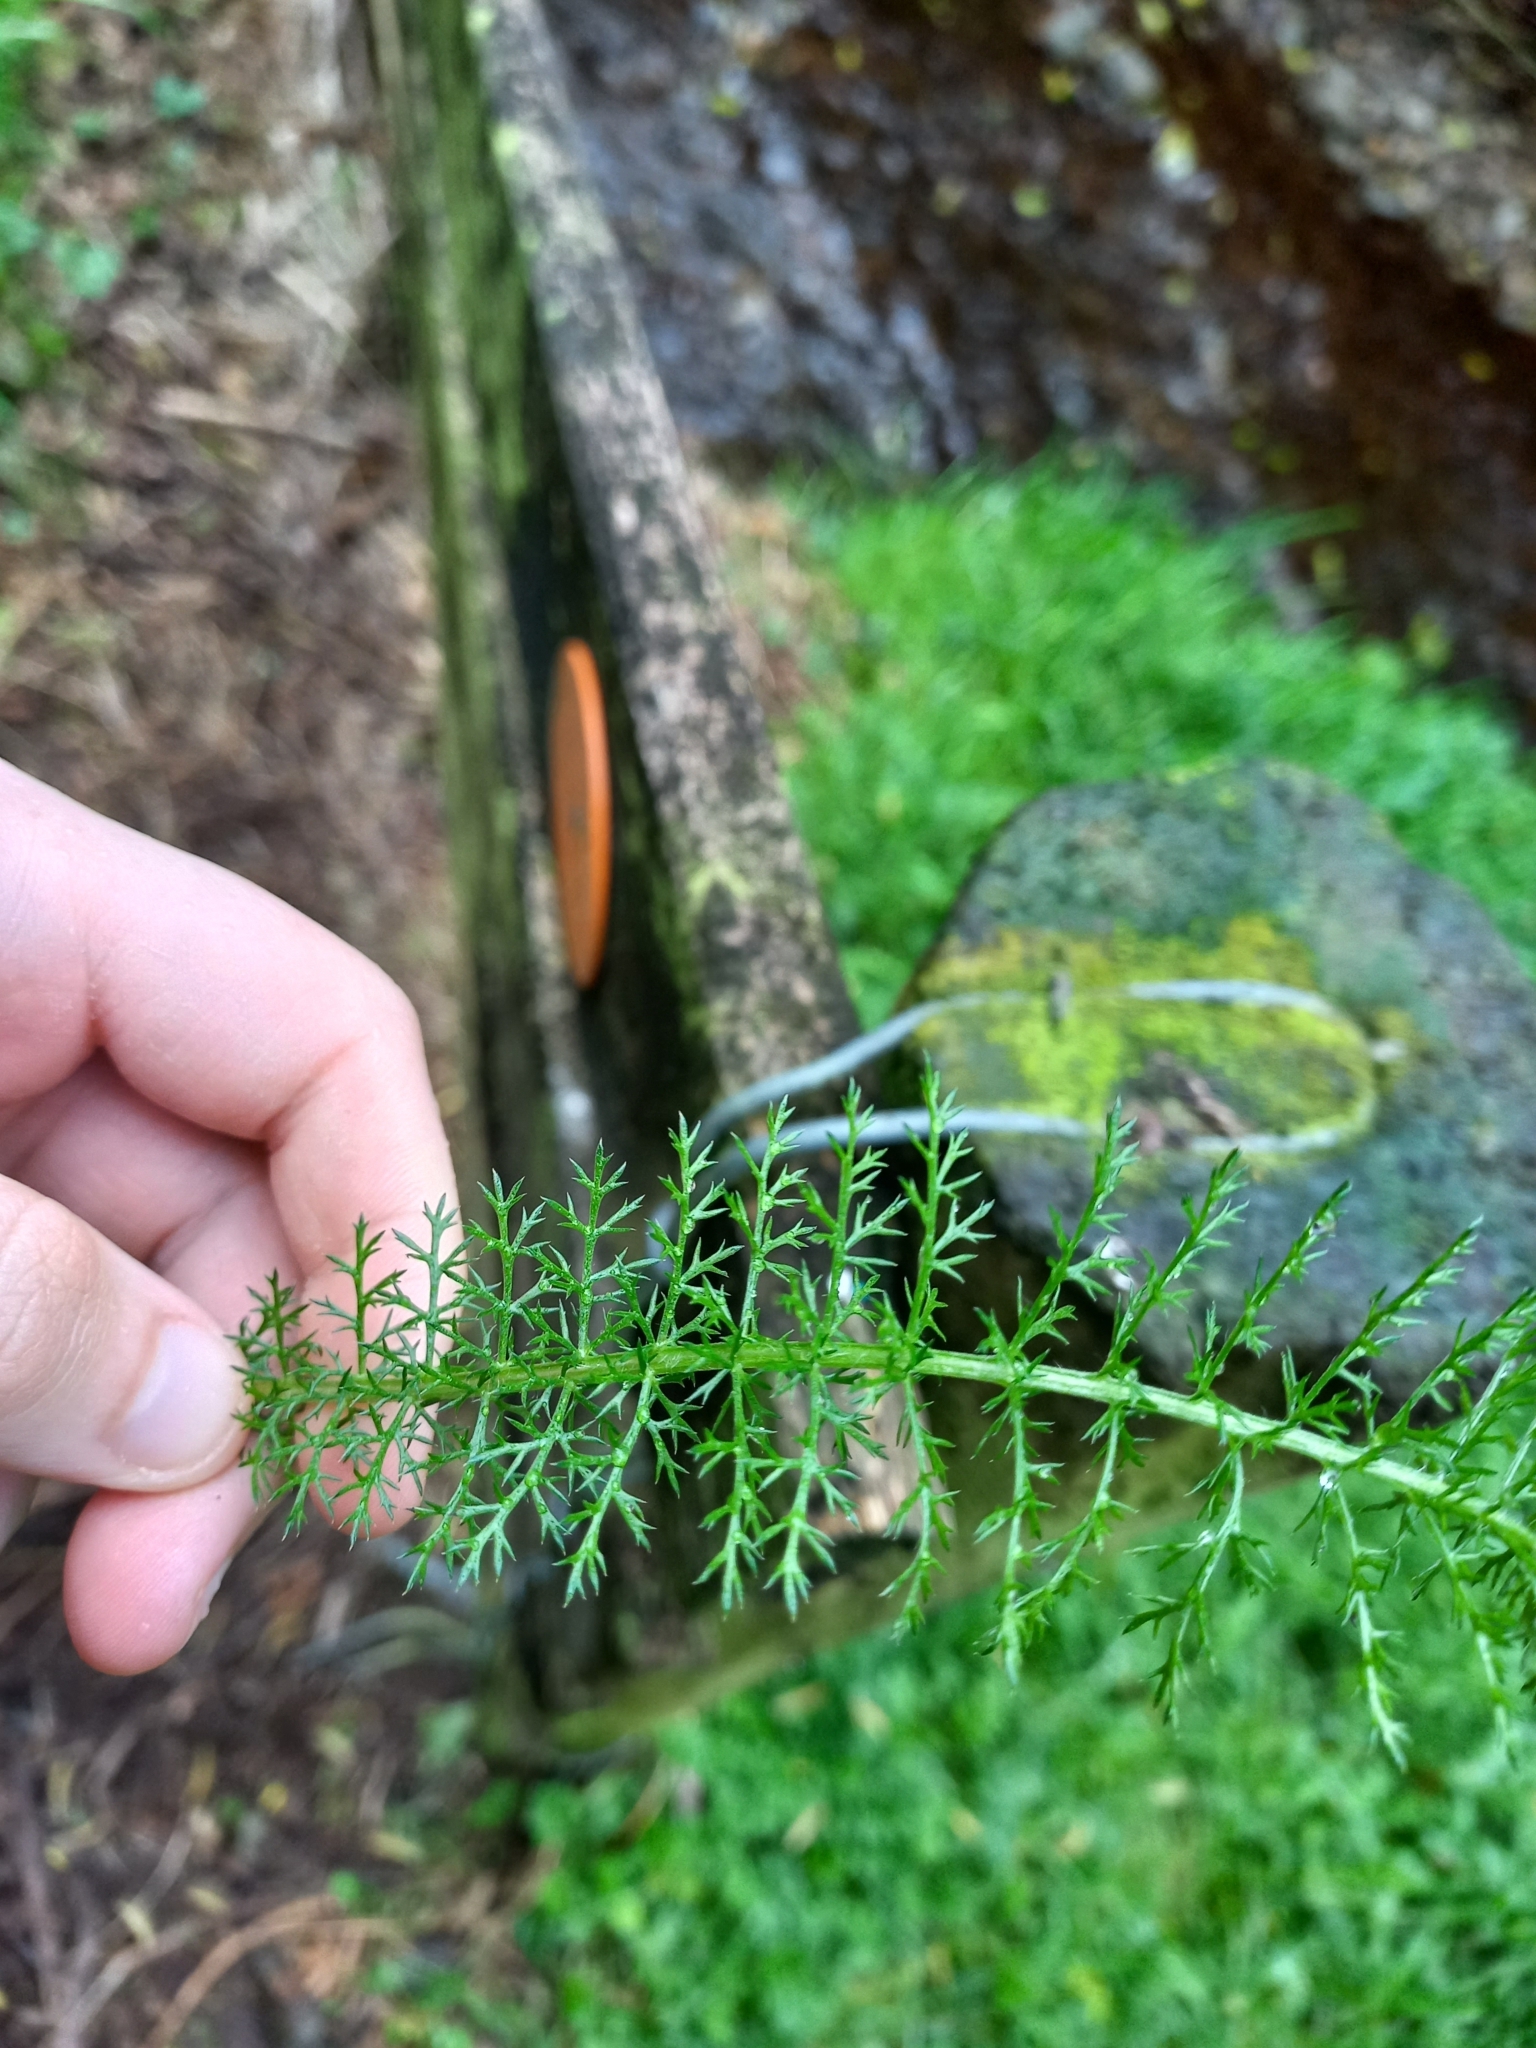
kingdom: Plantae
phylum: Tracheophyta
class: Magnoliopsida
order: Asterales
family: Asteraceae
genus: Achillea
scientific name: Achillea millefolium
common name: Yarrow
